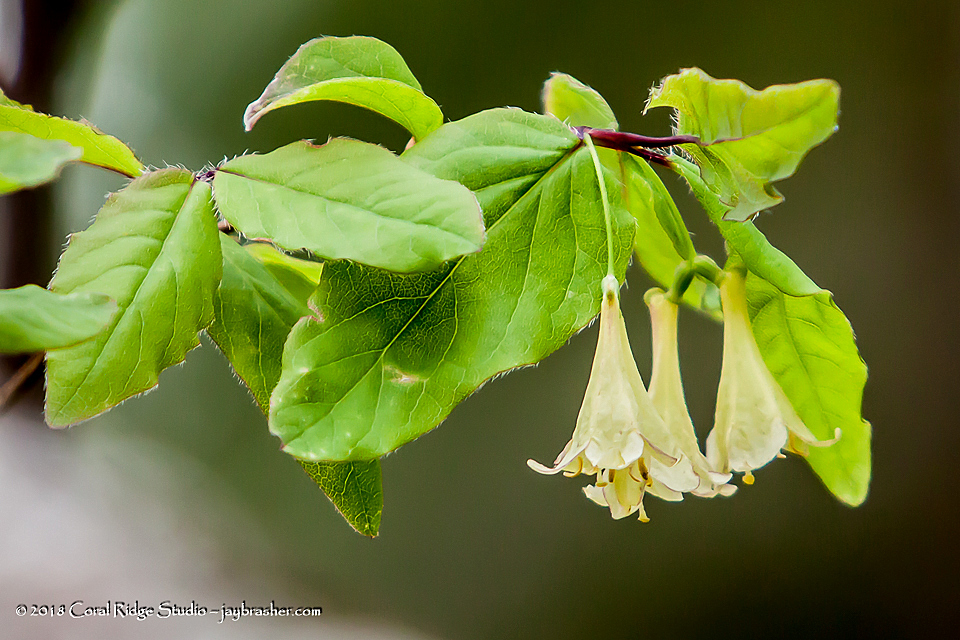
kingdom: Plantae
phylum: Tracheophyta
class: Magnoliopsida
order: Dipsacales
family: Caprifoliaceae
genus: Lonicera
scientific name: Lonicera canadensis
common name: American fly-honeysuckle
